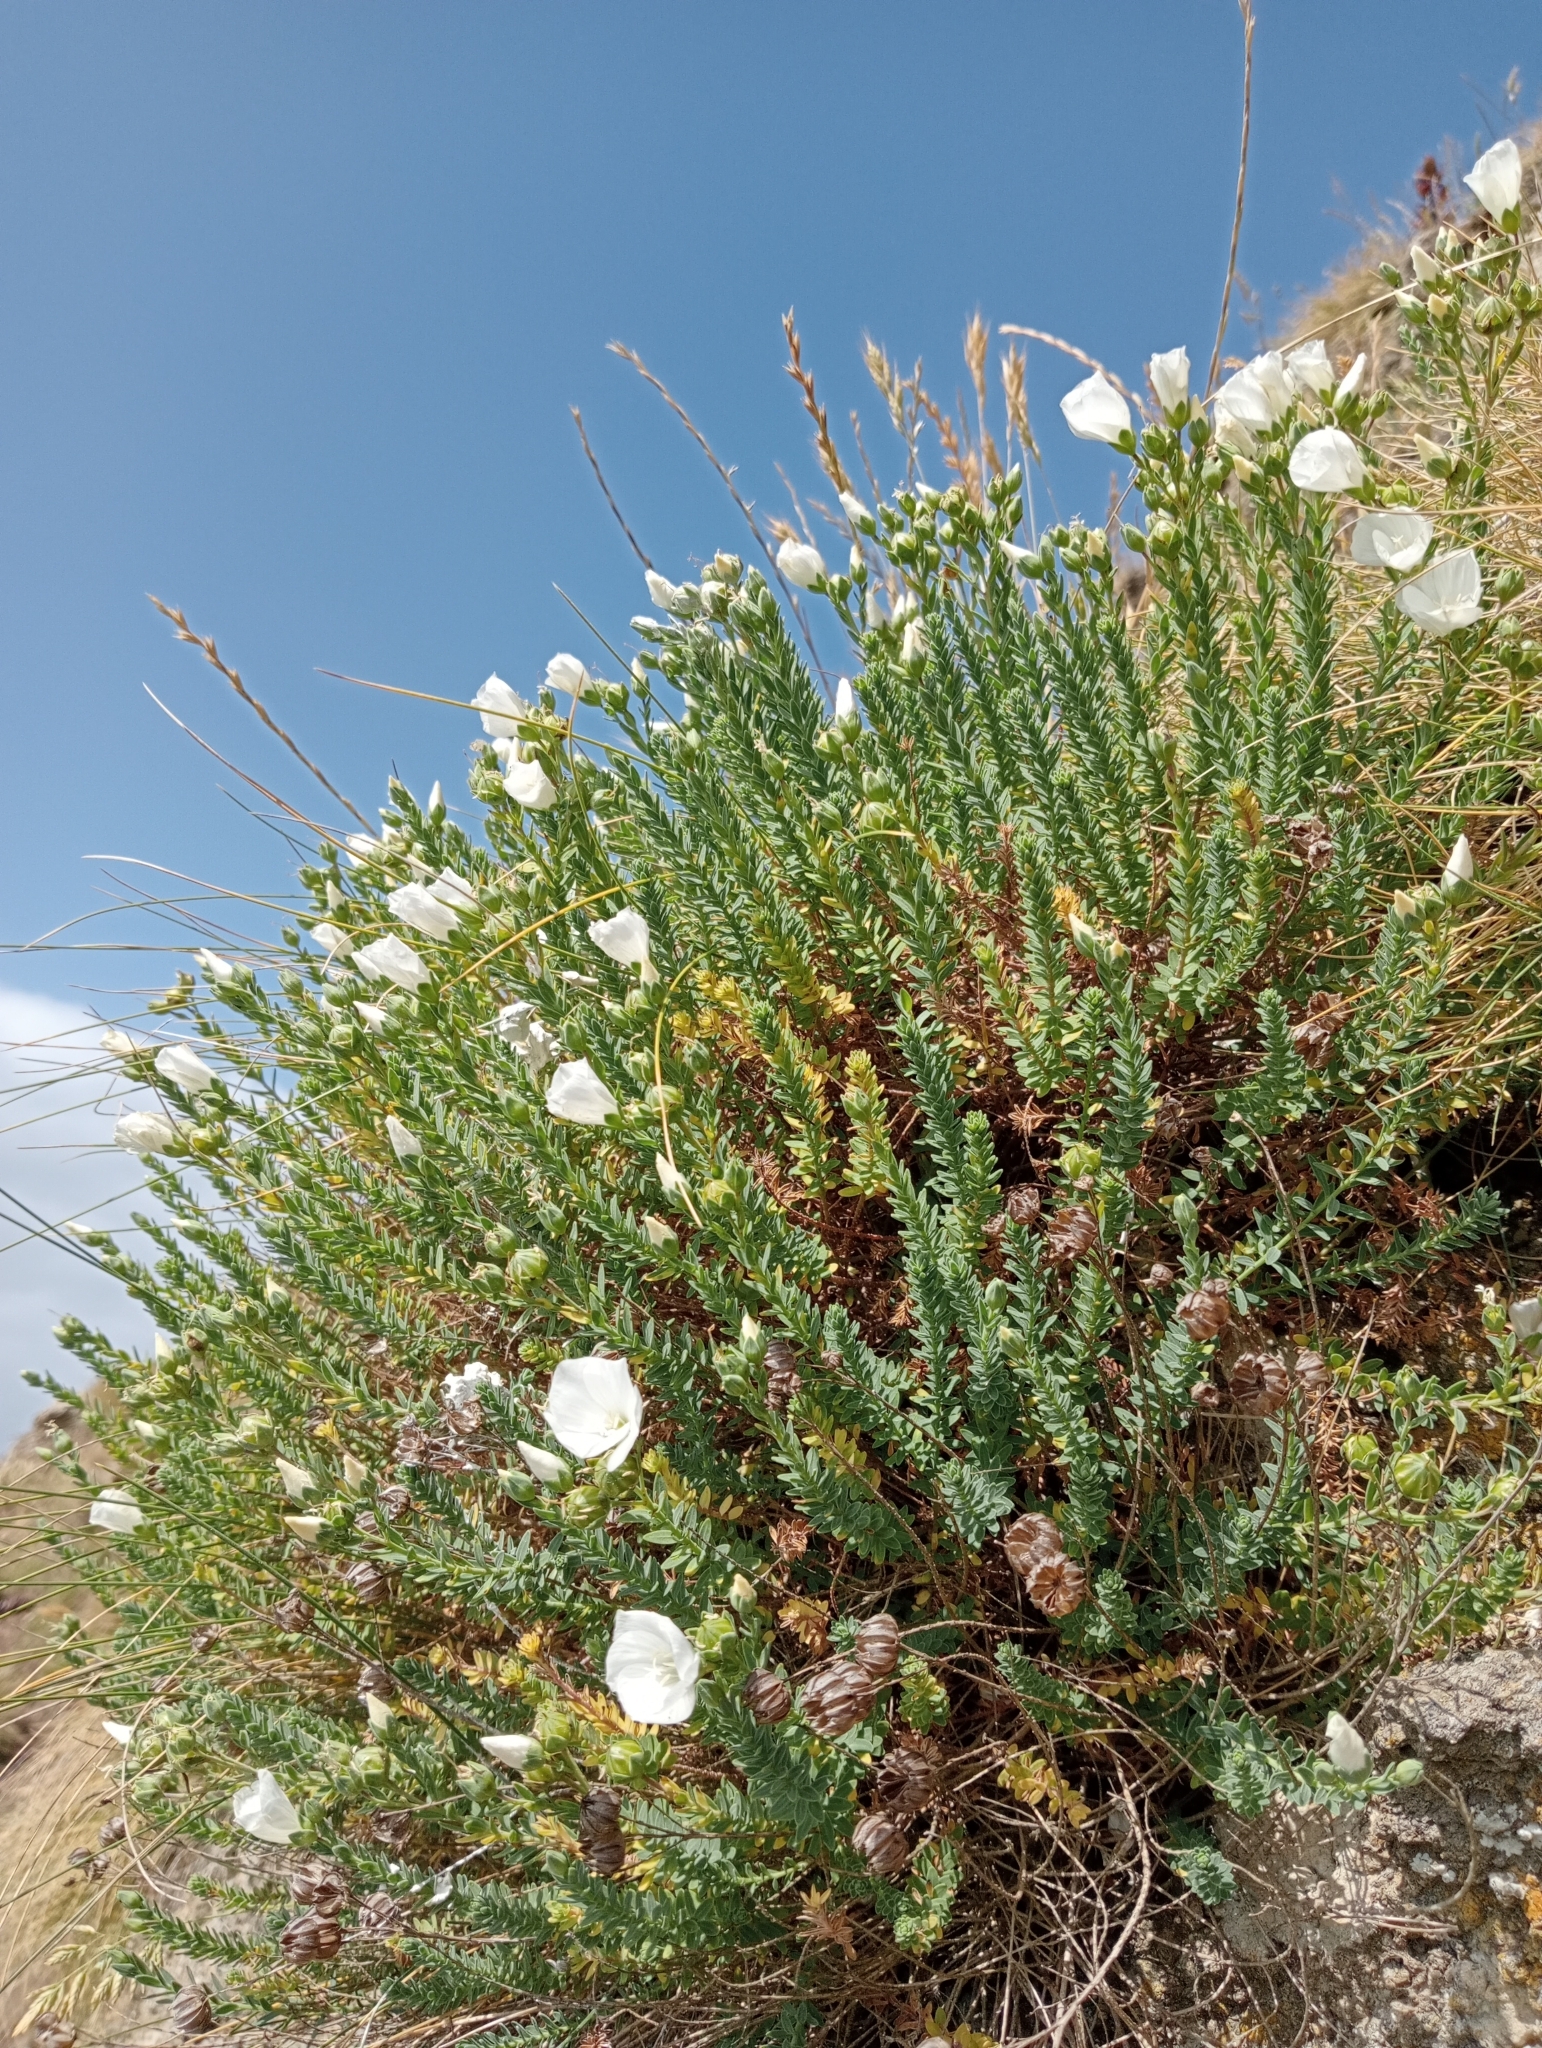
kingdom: Plantae
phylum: Tracheophyta
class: Magnoliopsida
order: Malpighiales
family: Linaceae
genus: Linum
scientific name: Linum monogynum
